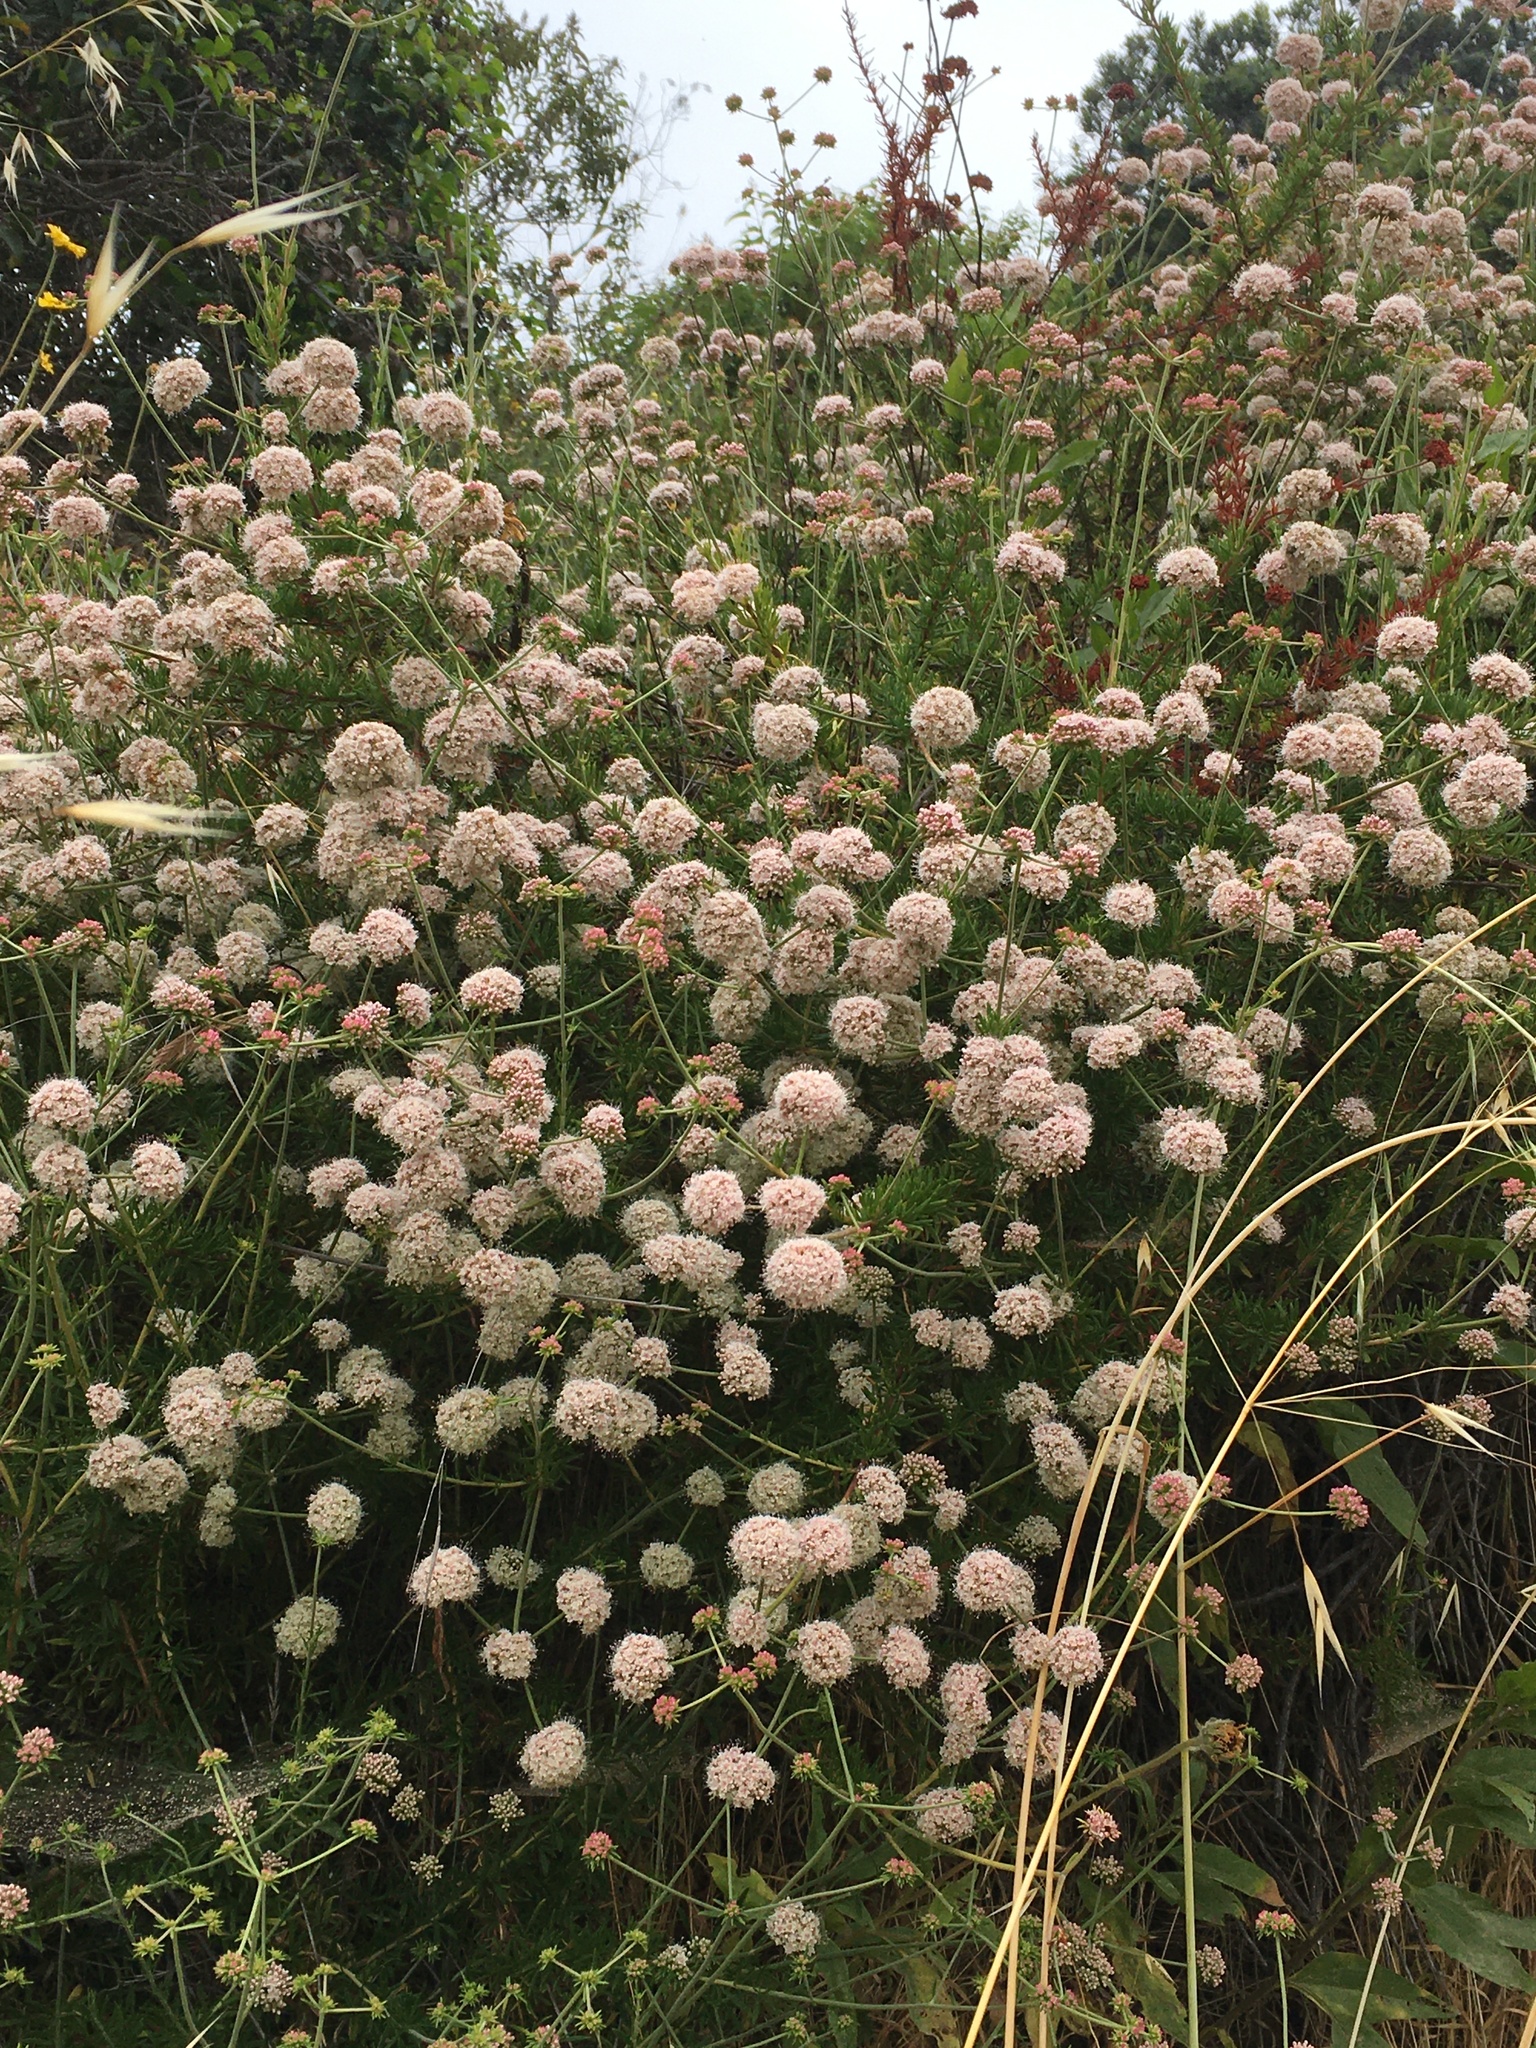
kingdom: Plantae
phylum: Tracheophyta
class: Magnoliopsida
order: Caryophyllales
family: Polygonaceae
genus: Eriogonum
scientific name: Eriogonum fasciculatum
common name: California wild buckwheat
